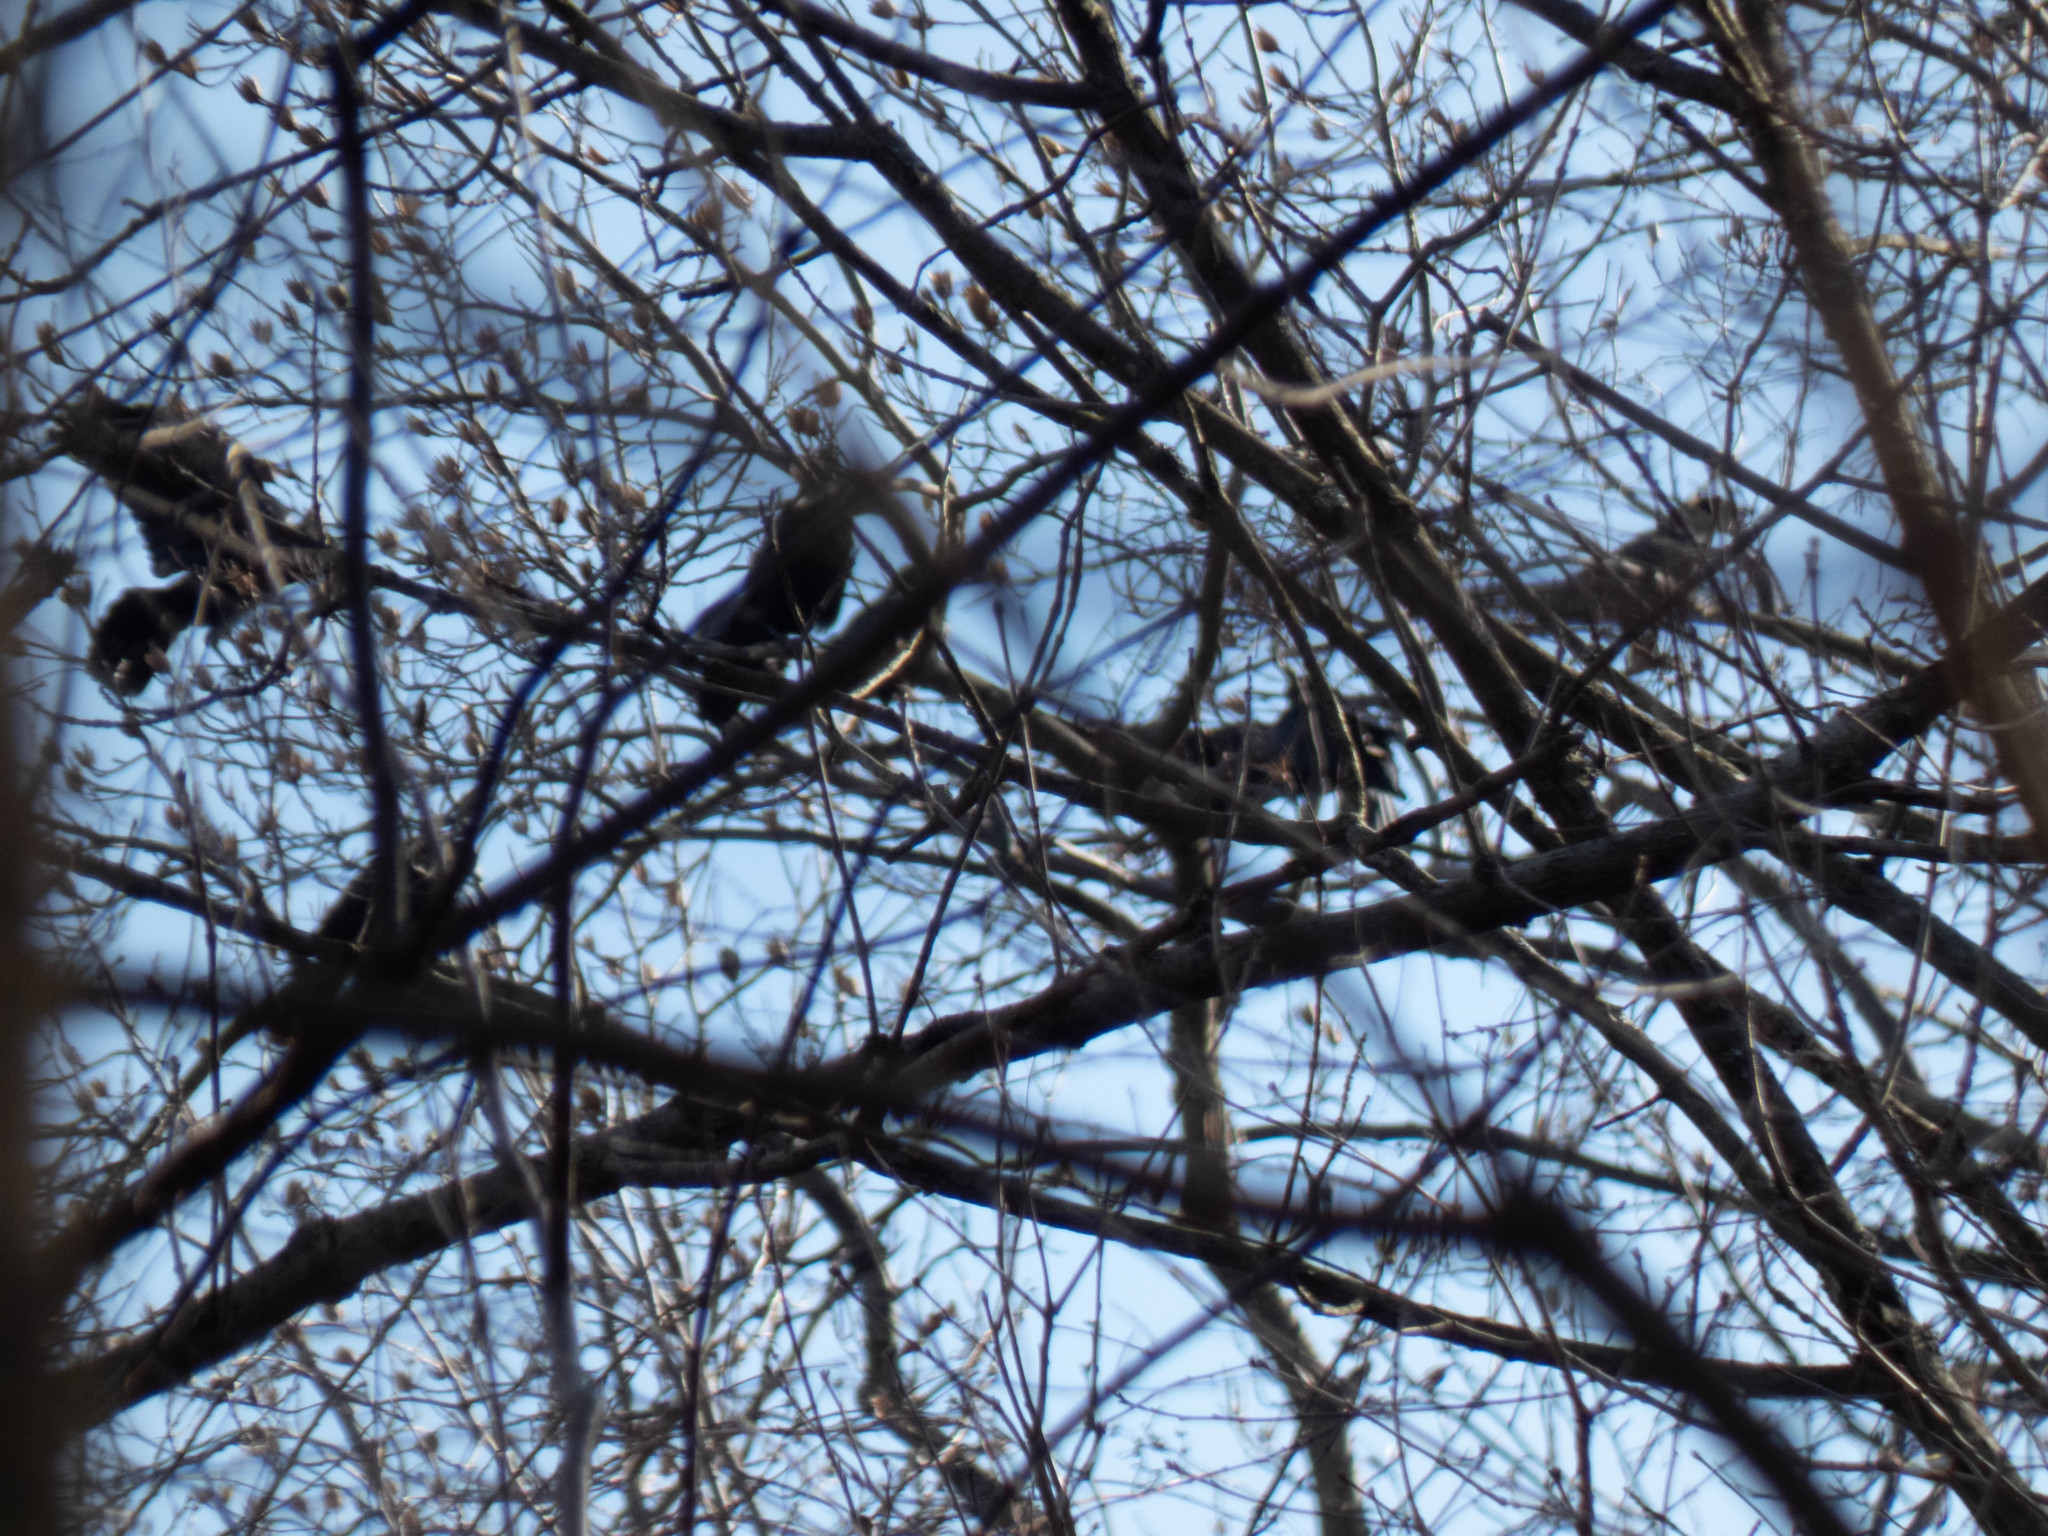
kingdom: Animalia
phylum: Chordata
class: Aves
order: Passeriformes
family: Corvidae
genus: Corvus
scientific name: Corvus brachyrhynchos
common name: American crow
